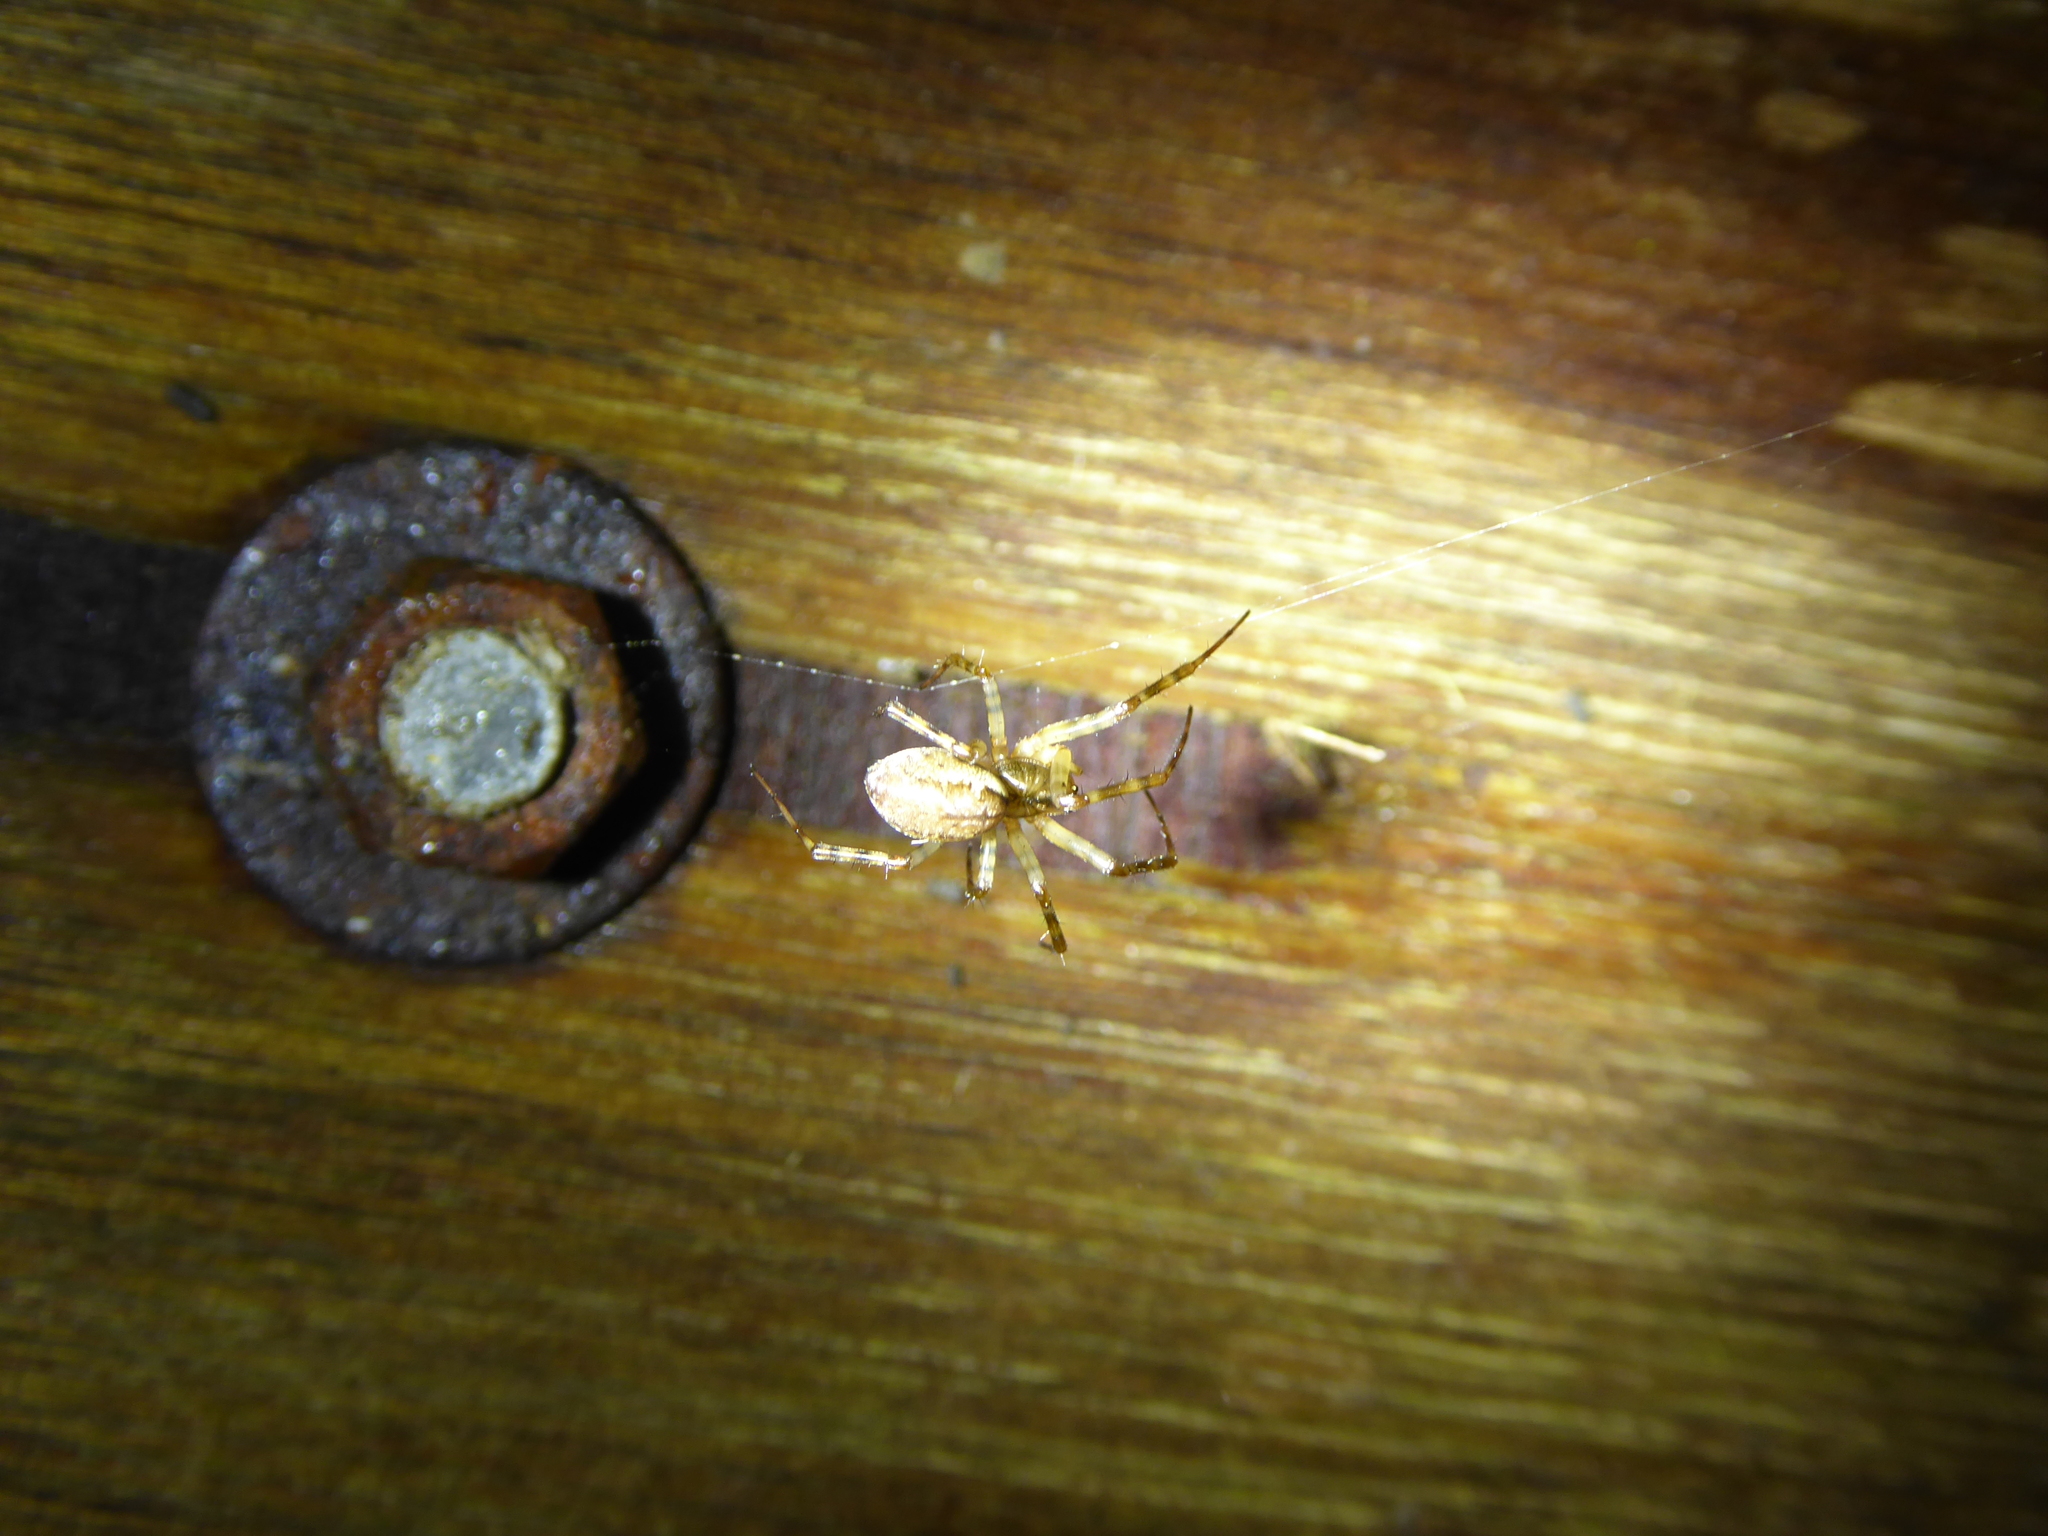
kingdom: Animalia
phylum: Arthropoda
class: Arachnida
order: Araneae
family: Linyphiidae
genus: Neriene
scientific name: Neriene montana
